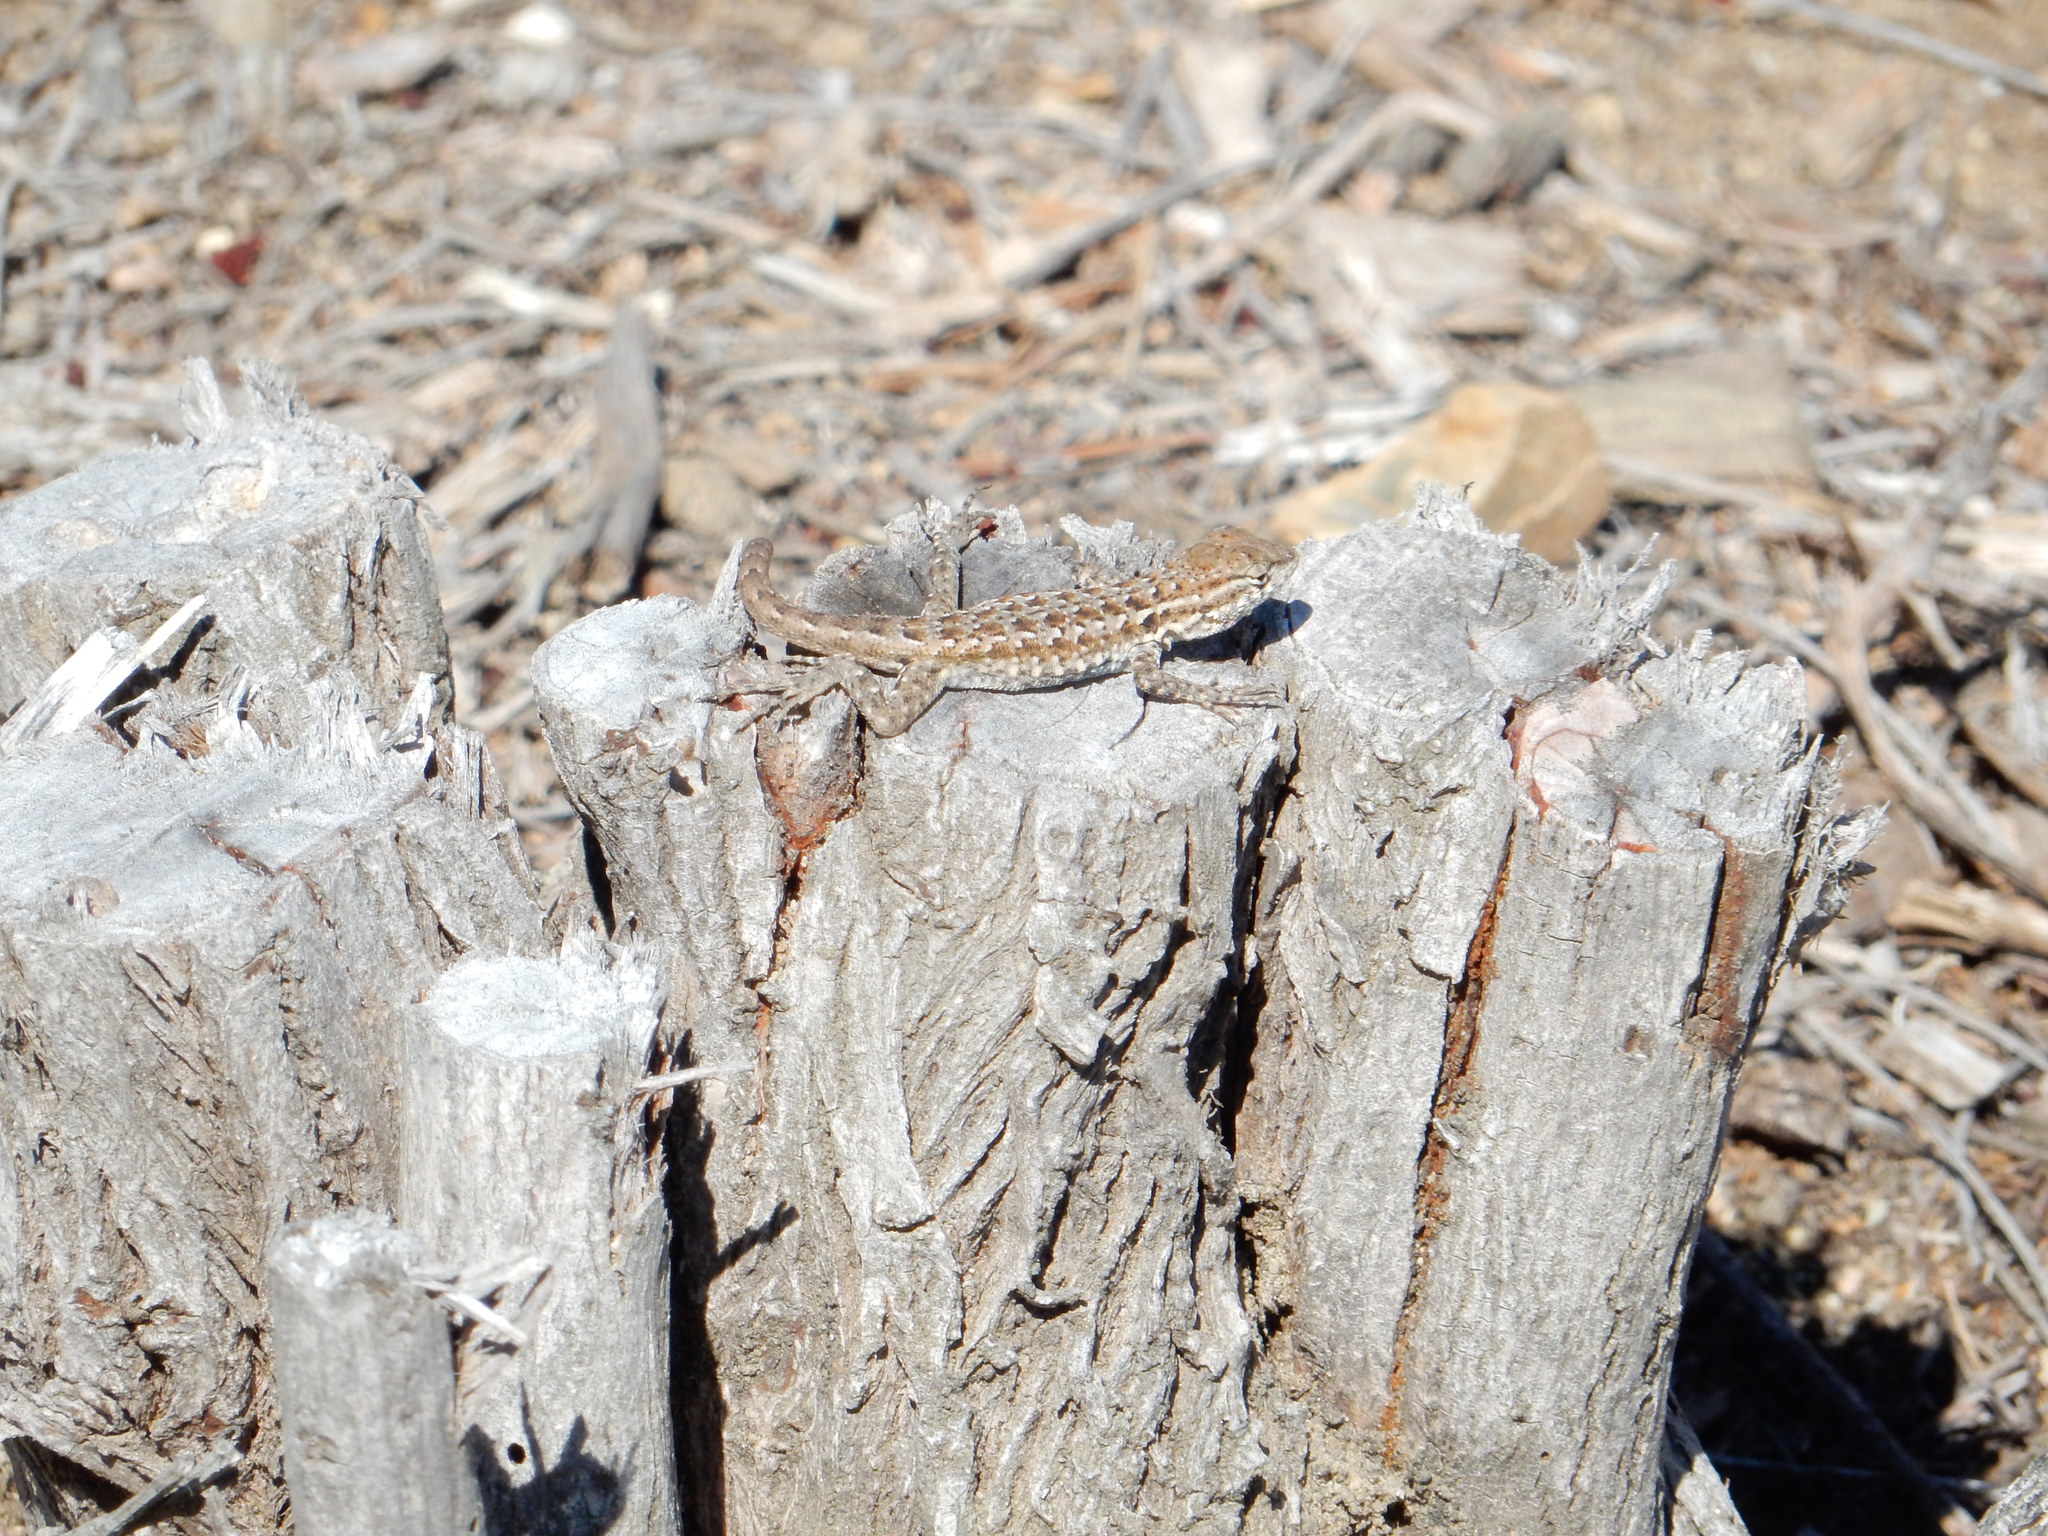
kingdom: Animalia
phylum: Chordata
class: Squamata
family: Phrynosomatidae
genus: Uta
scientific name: Uta stansburiana
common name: Side-blotched lizard
